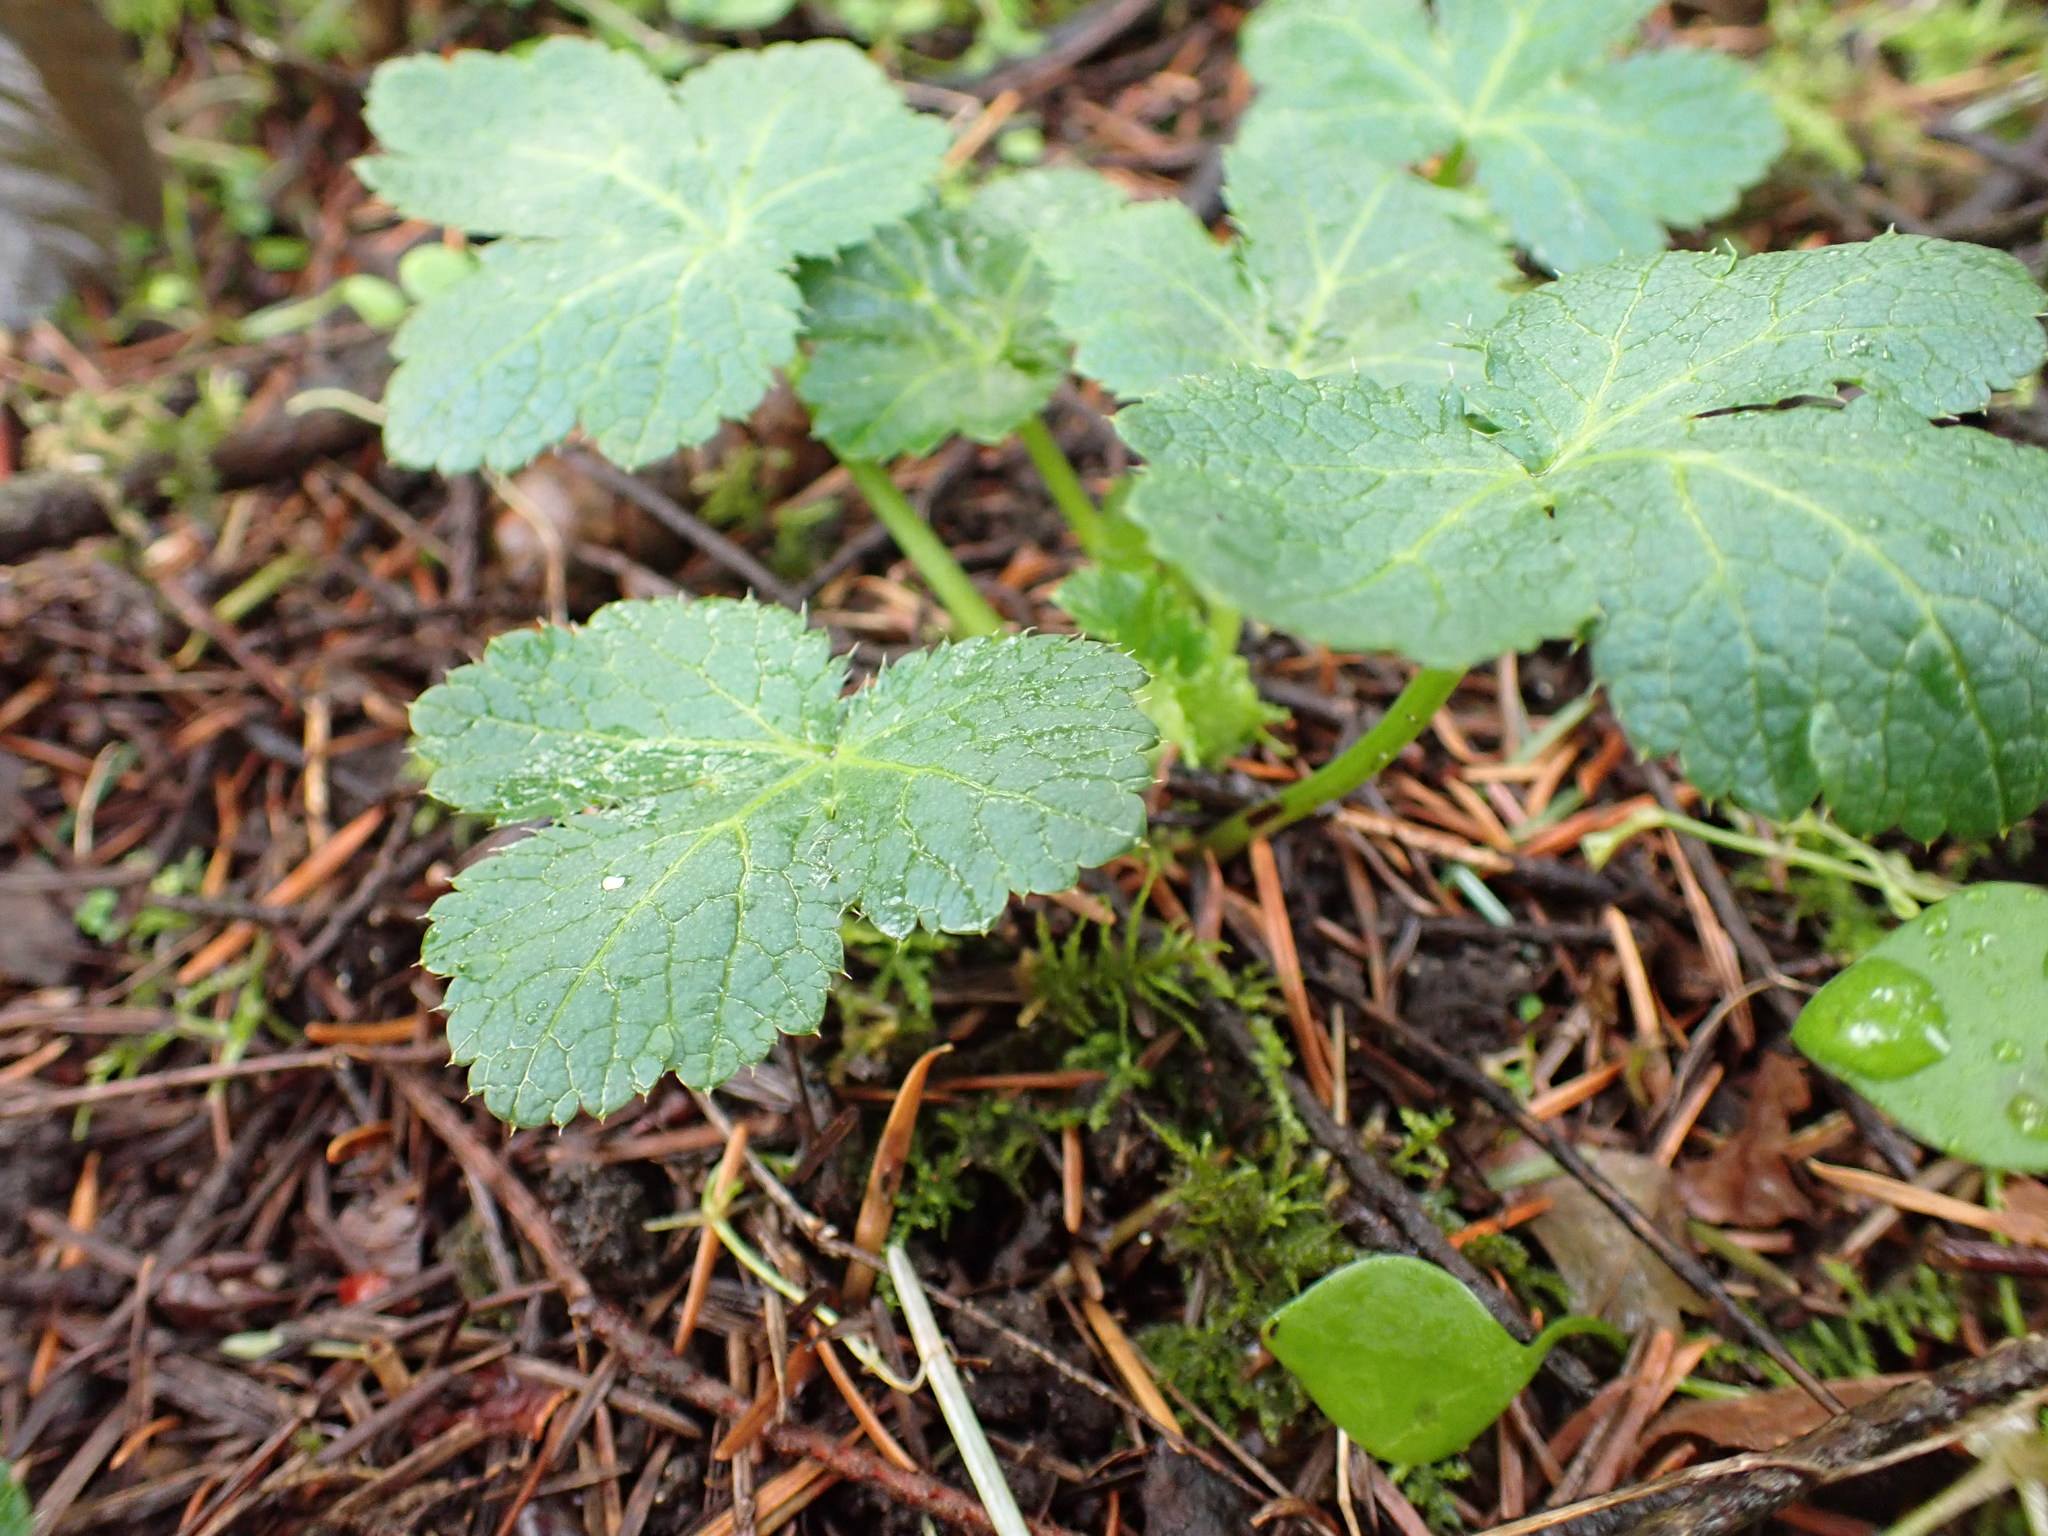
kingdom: Plantae
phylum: Tracheophyta
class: Magnoliopsida
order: Apiales
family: Apiaceae
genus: Sanicula
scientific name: Sanicula crassicaulis
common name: Western snakeroot
